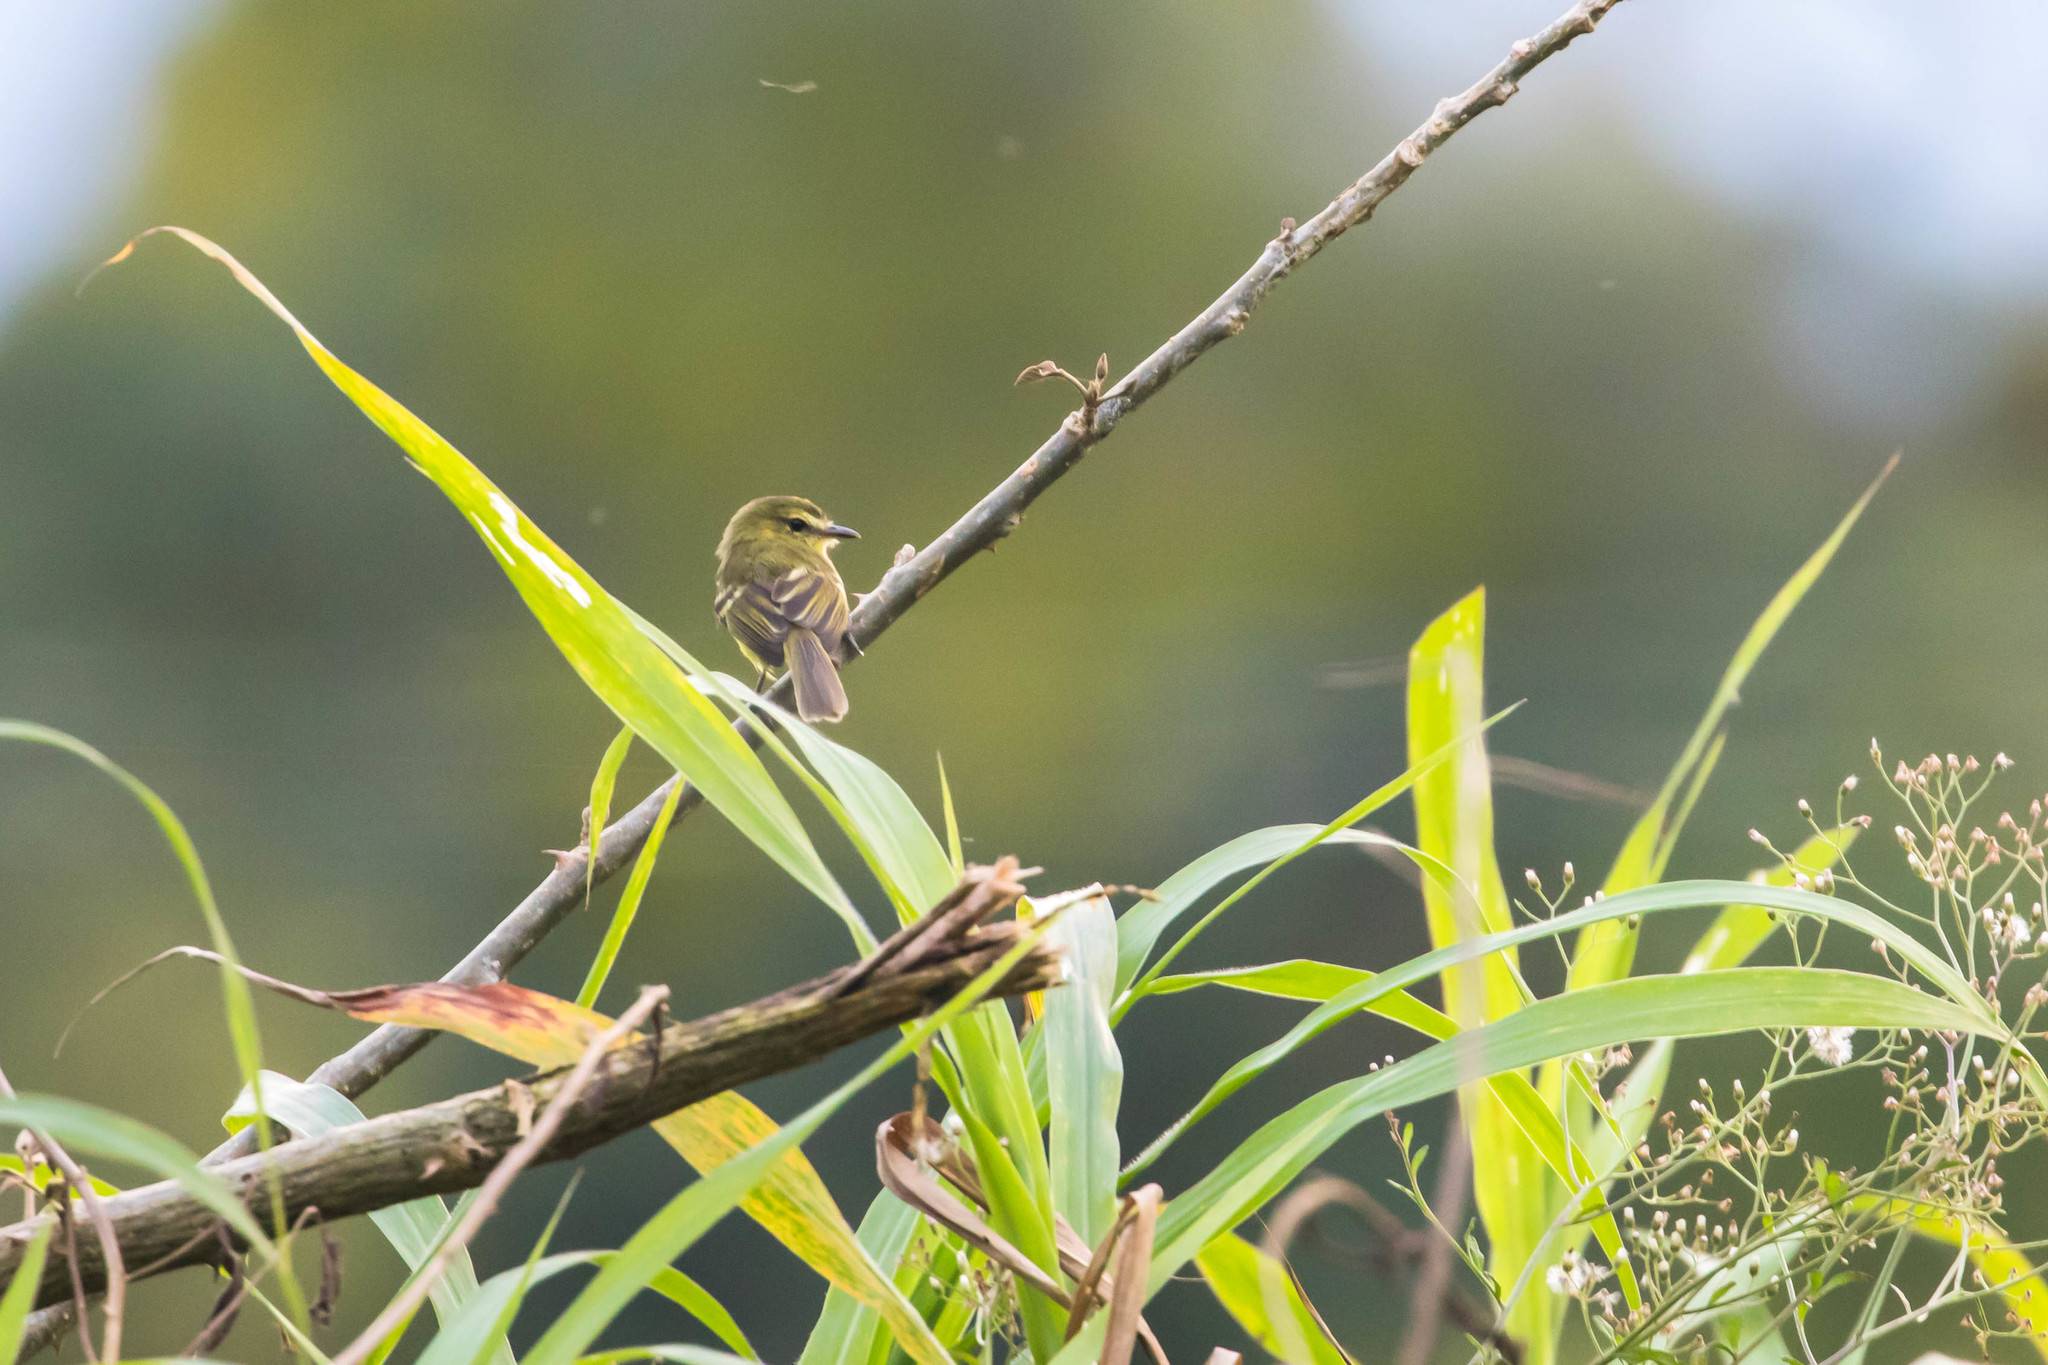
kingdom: Animalia
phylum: Chordata
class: Aves
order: Passeriformes
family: Tyrannidae
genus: Capsiempis
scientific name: Capsiempis flaveola
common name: Yellow tyrannulet
